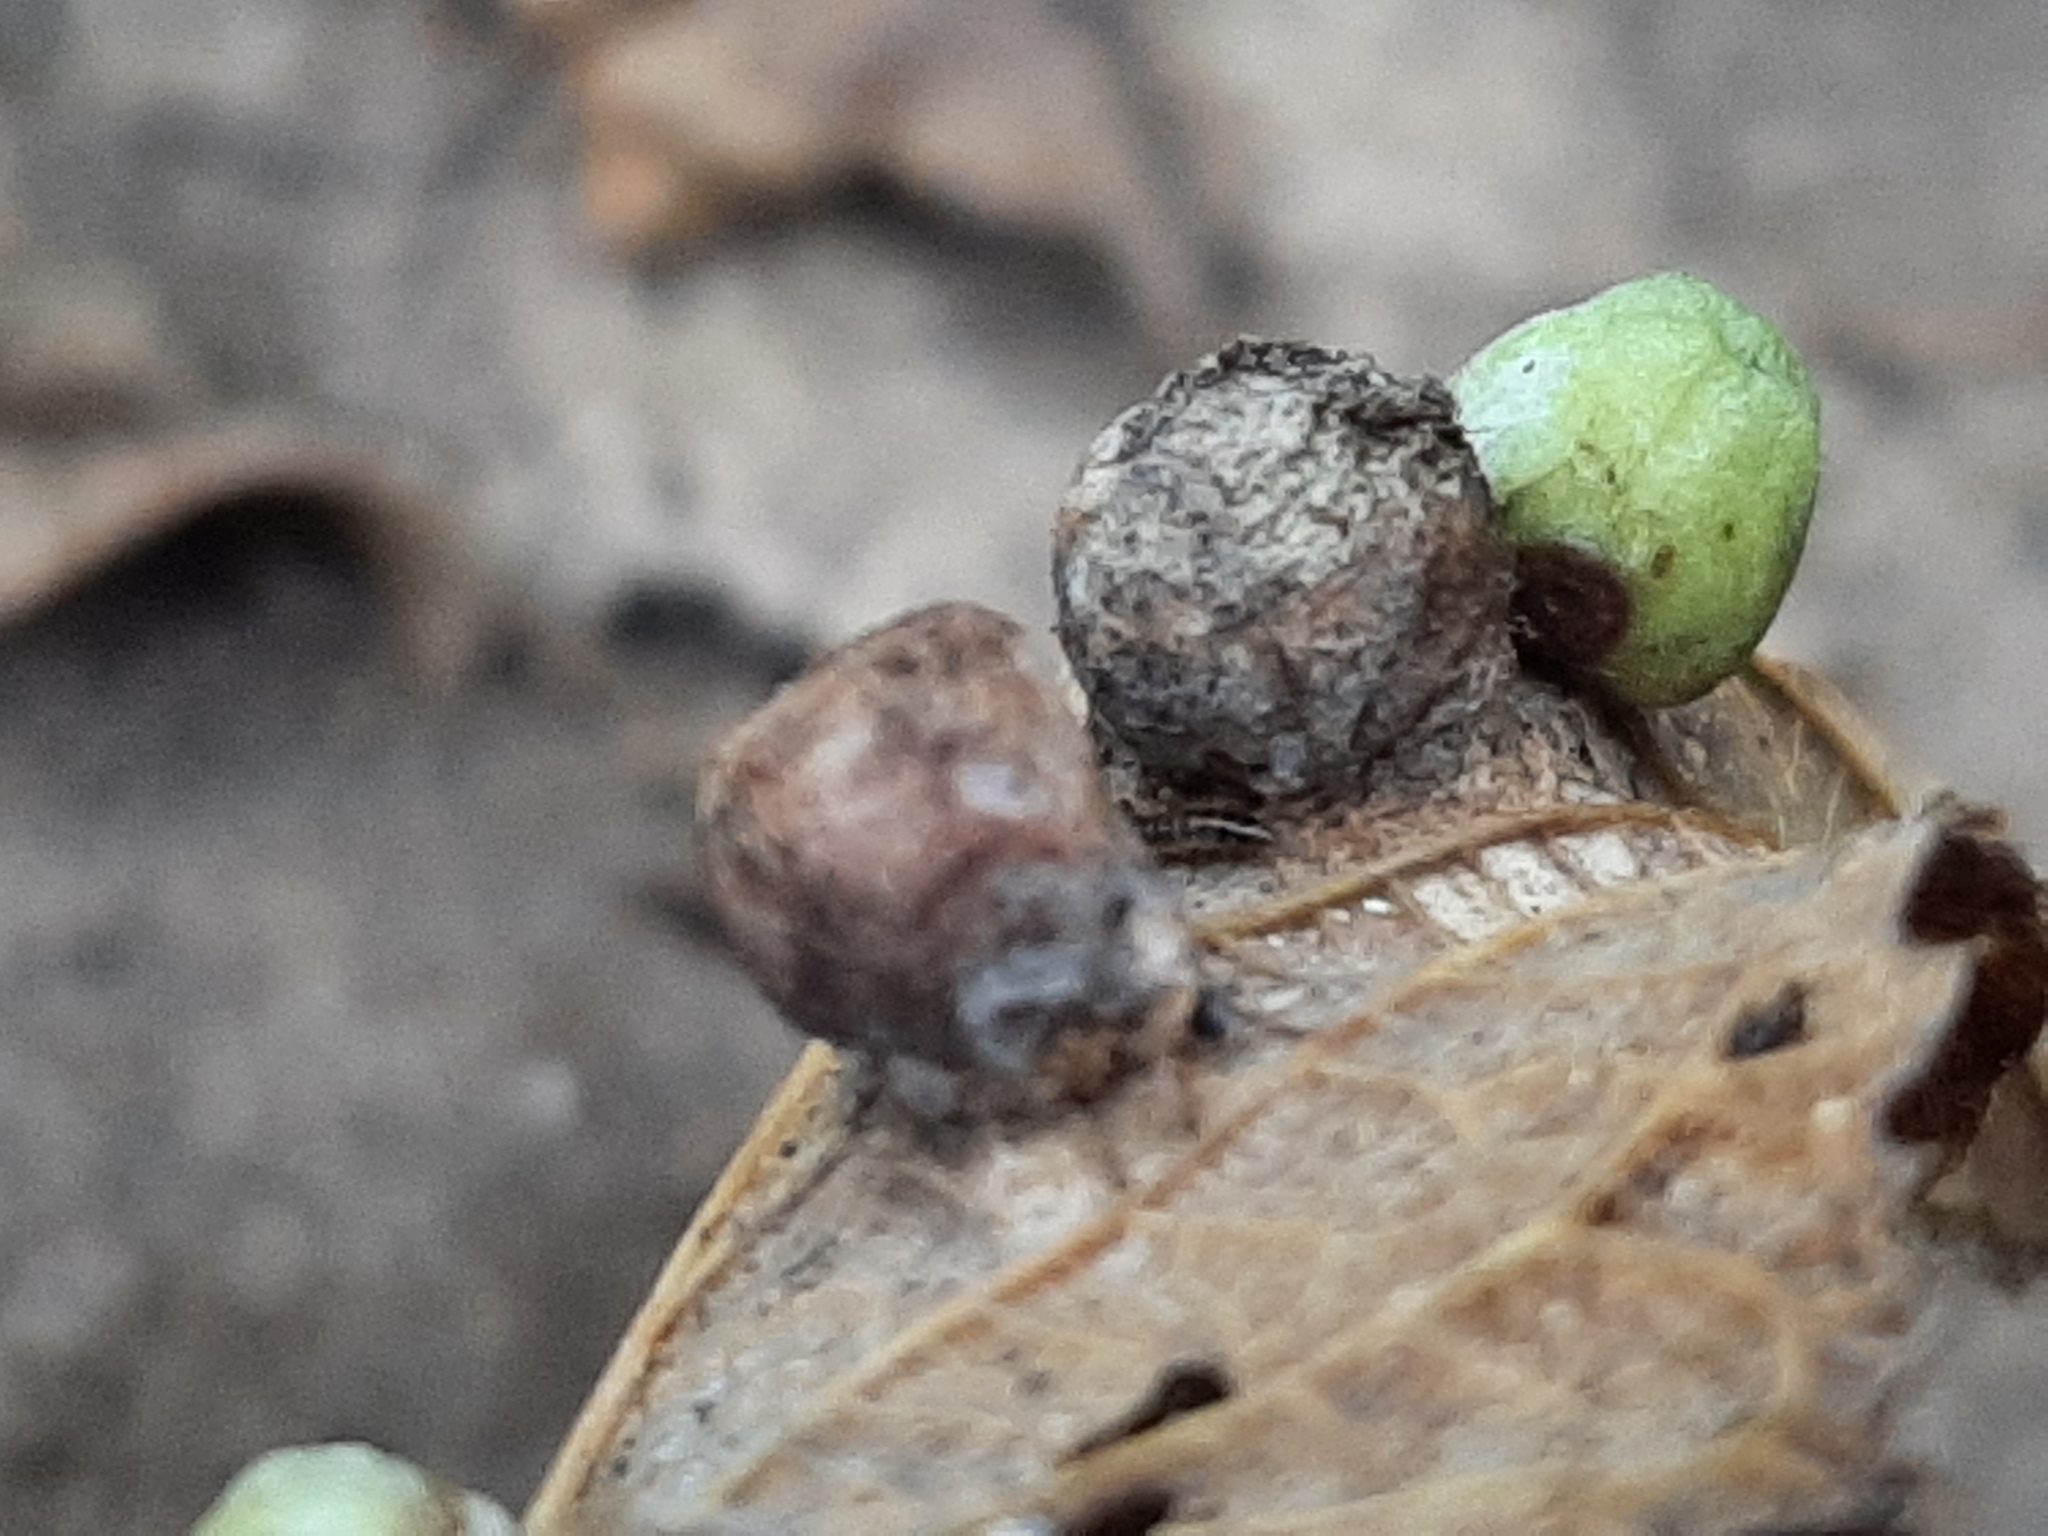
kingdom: Animalia
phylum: Arthropoda
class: Insecta
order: Hemiptera
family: Aphalaridae
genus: Pachypsylla
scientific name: Pachypsylla celtidismamma
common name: Hackberry nipplegall psyllid
